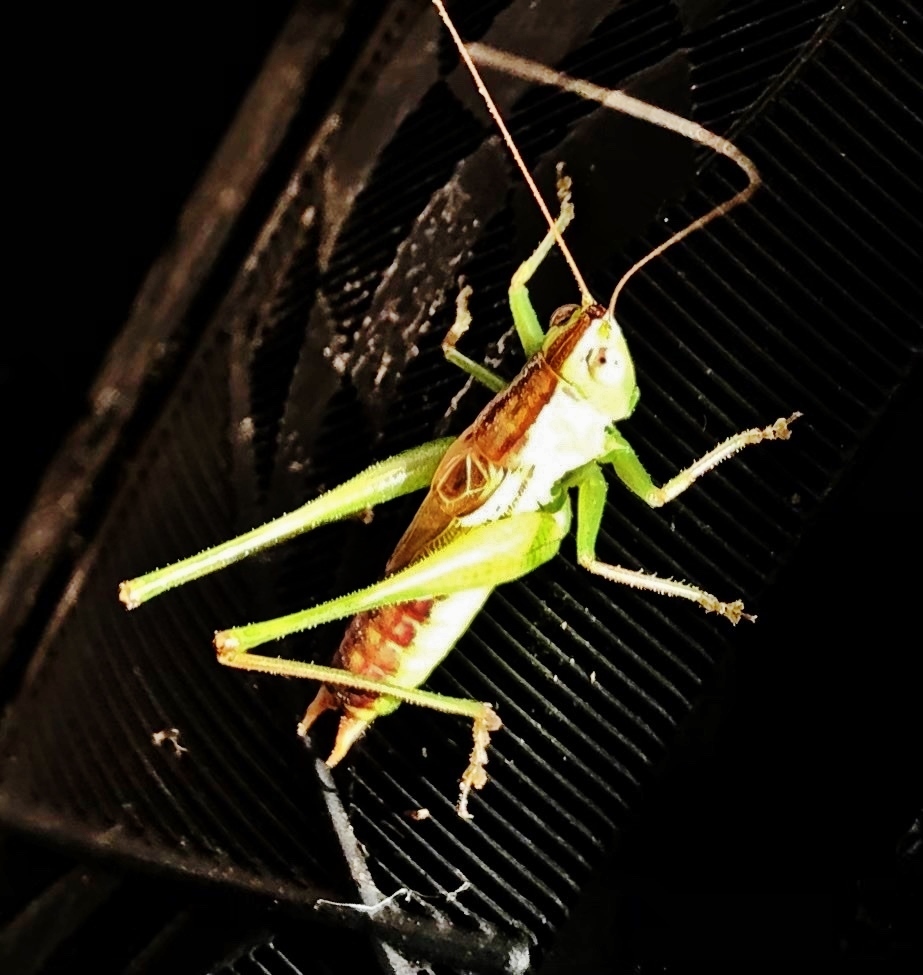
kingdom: Animalia
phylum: Arthropoda
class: Insecta
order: Orthoptera
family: Tettigoniidae
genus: Conocephalus
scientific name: Conocephalus strictus
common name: Straight-lanced katydid
